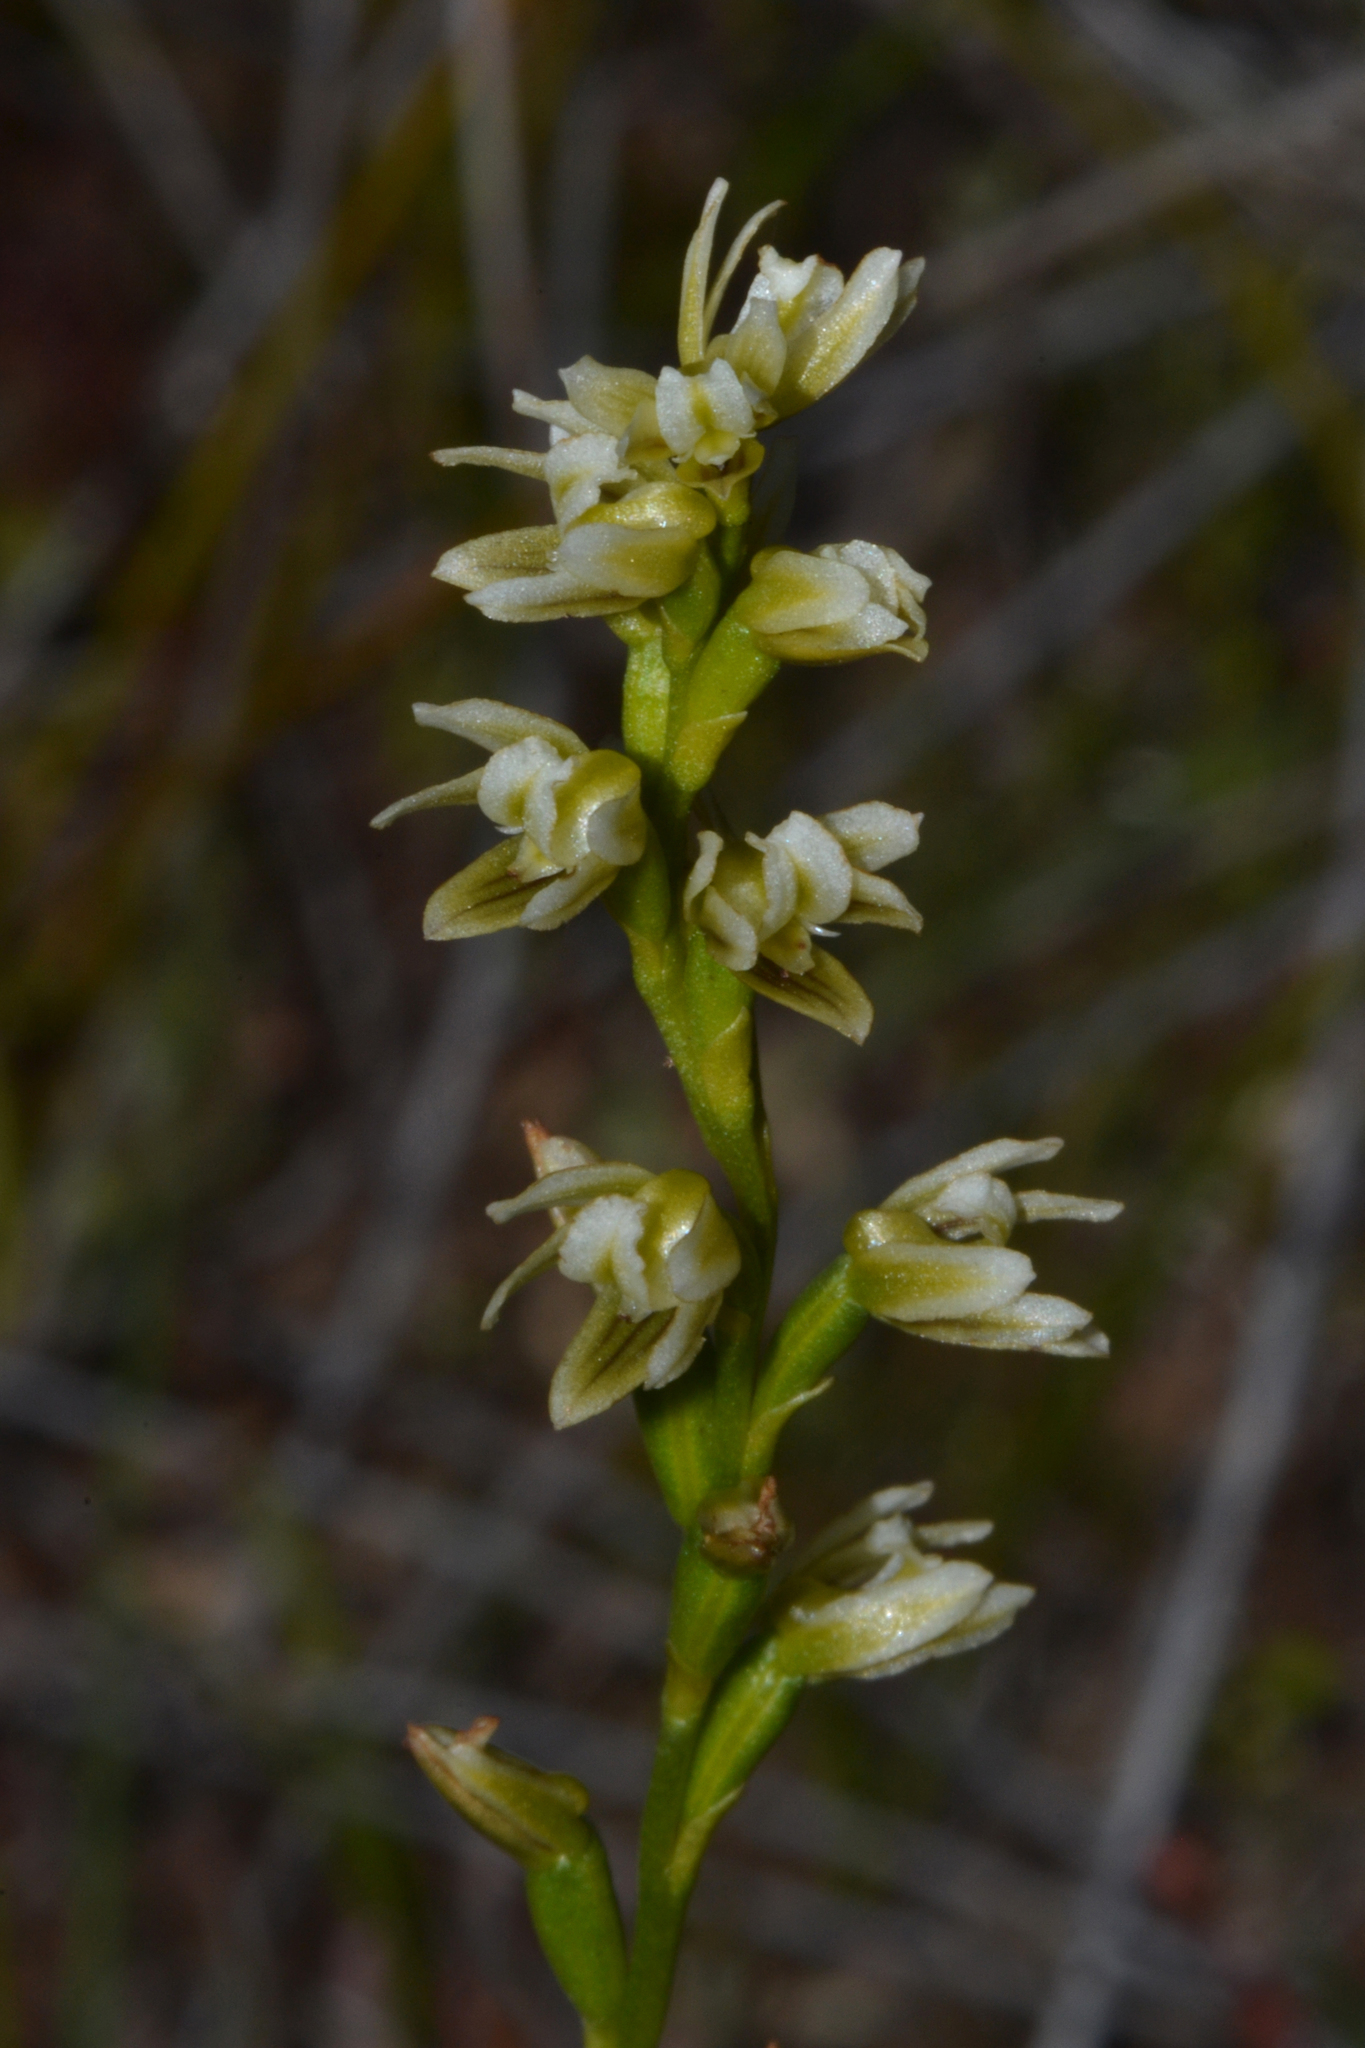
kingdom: Plantae
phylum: Tracheophyta
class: Liliopsida
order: Asparagales
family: Orchidaceae
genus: Prasophyllum
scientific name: Prasophyllum ovale
